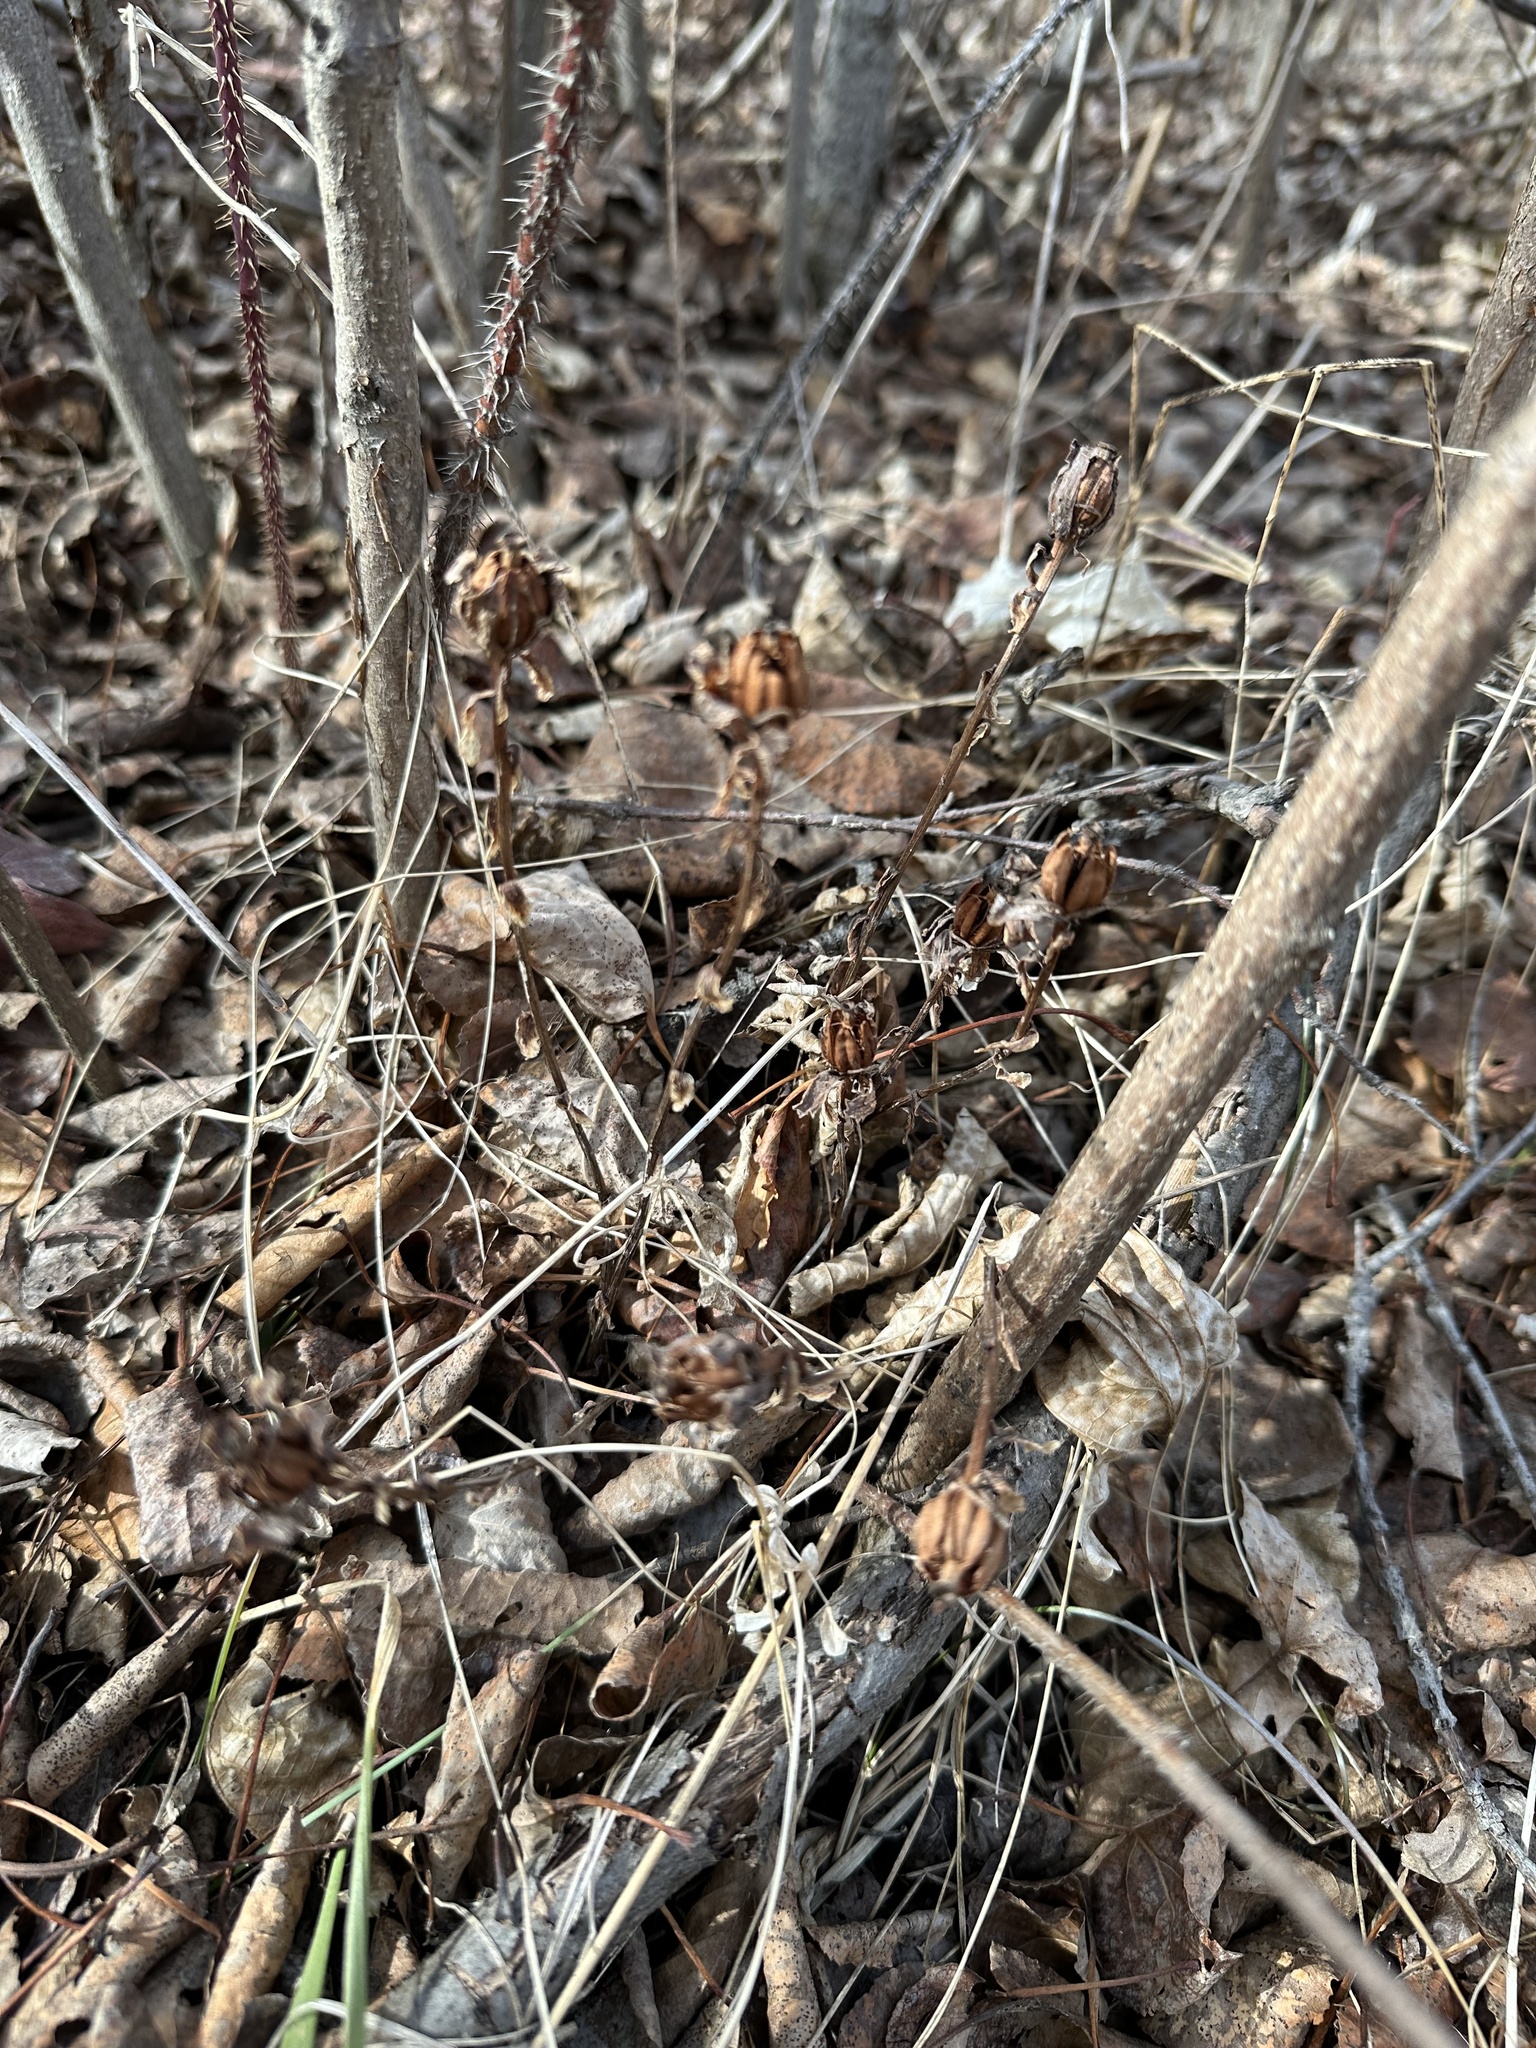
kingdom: Plantae
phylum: Tracheophyta
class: Magnoliopsida
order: Ericales
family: Ericaceae
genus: Monotropa
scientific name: Monotropa uniflora
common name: Convulsion root
